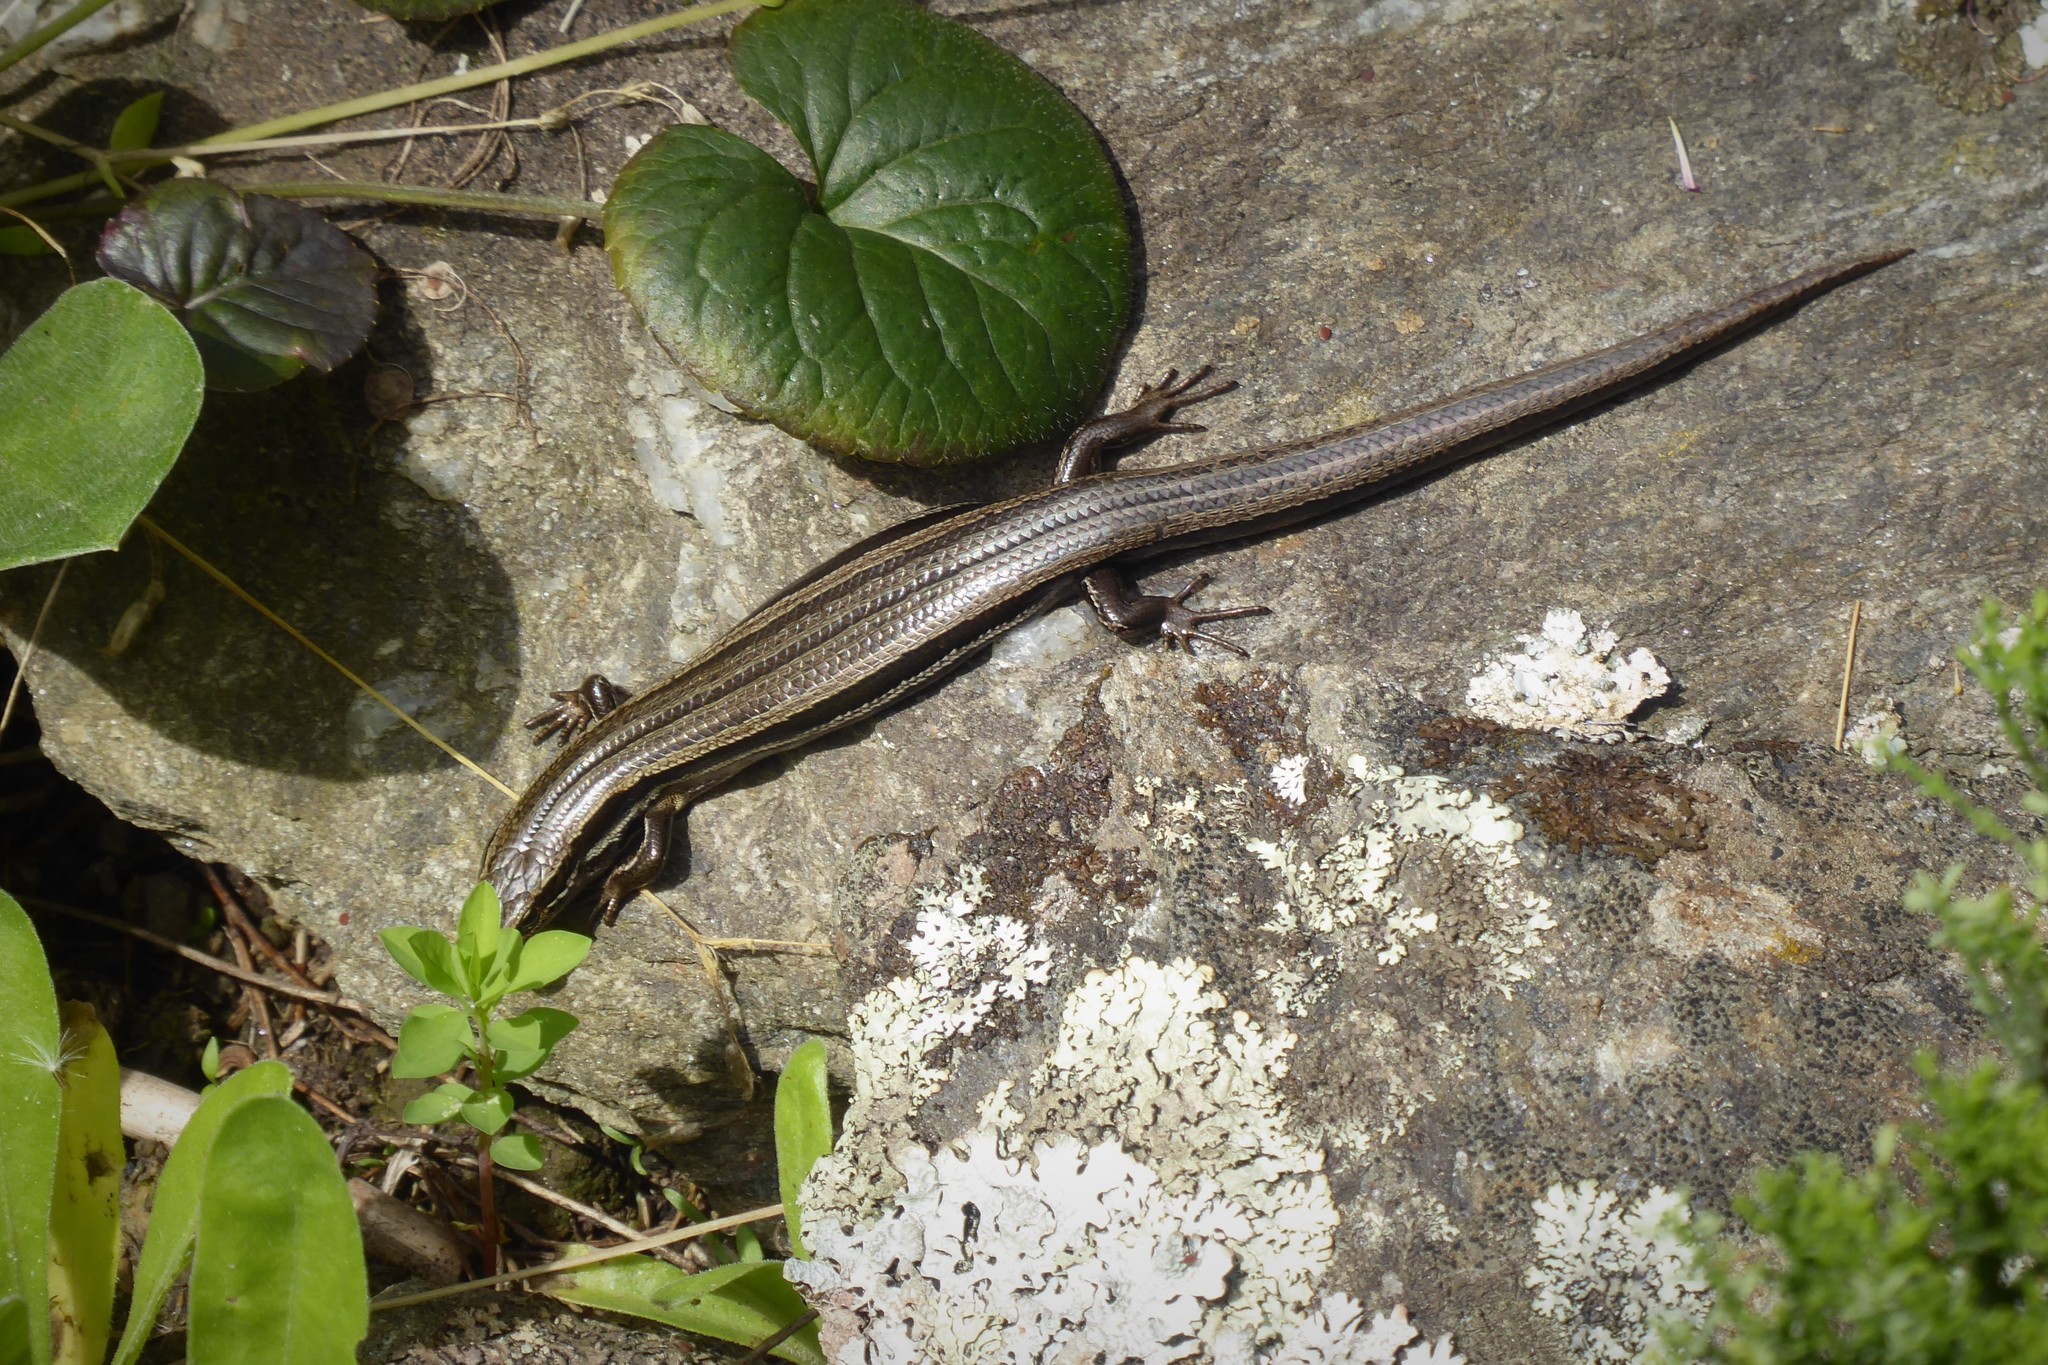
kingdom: Animalia
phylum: Chordata
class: Squamata
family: Scincidae
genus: Oligosoma
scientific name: Oligosoma polychroma
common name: Common new zealand skink
